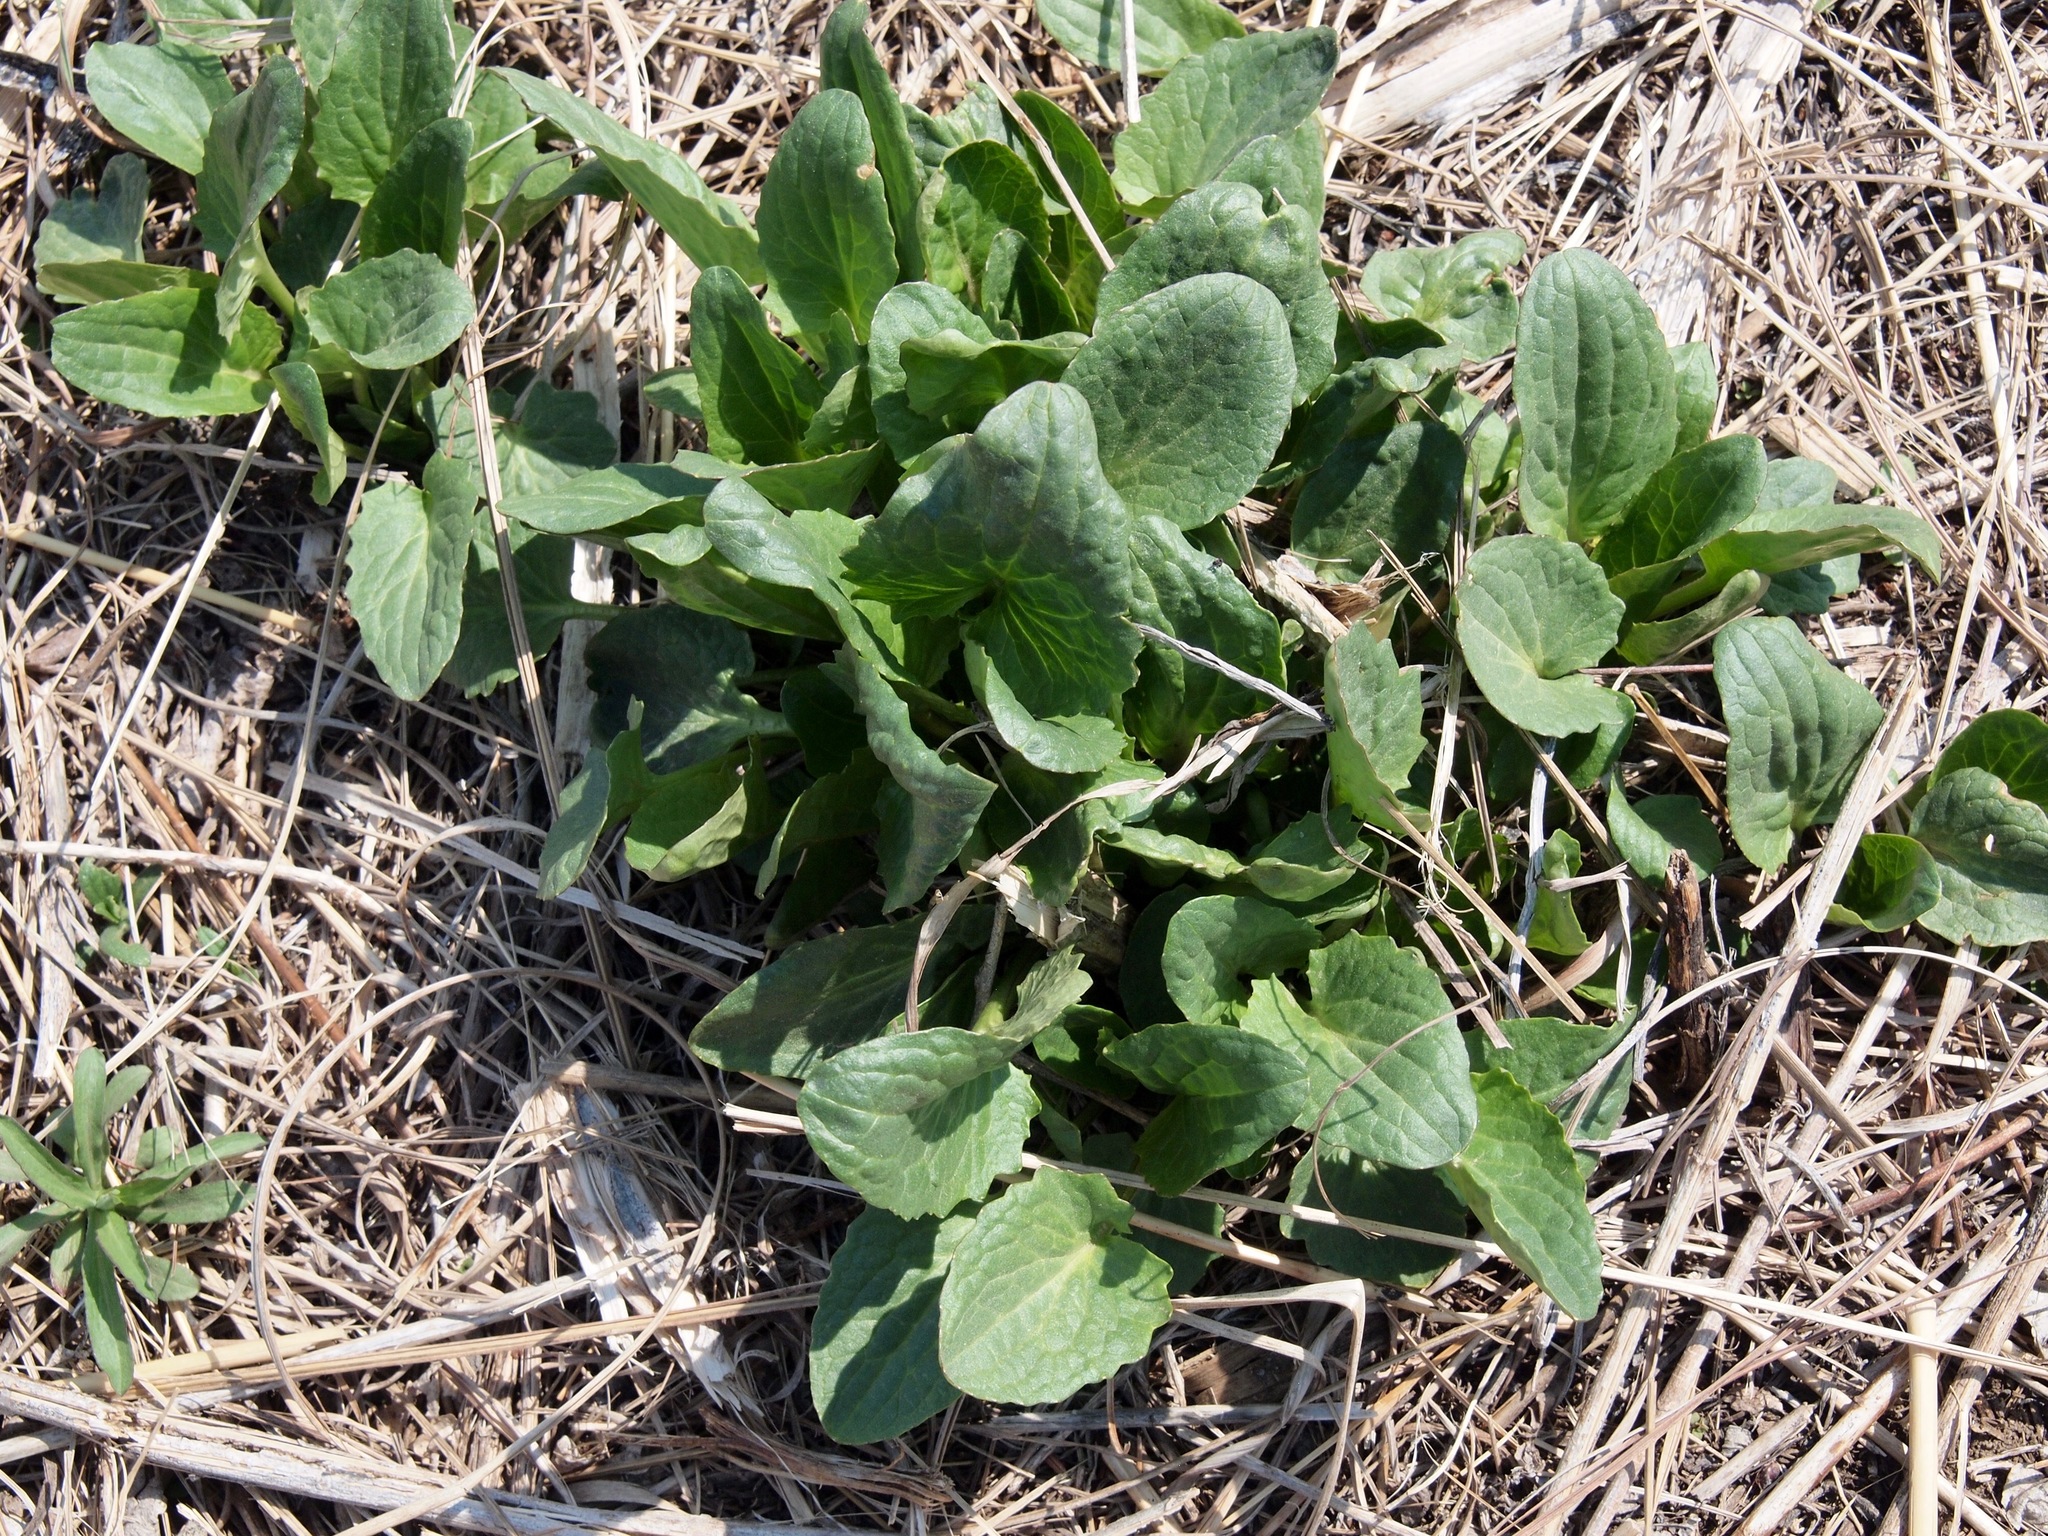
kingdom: Plantae
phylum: Tracheophyta
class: Magnoliopsida
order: Asterales
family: Asteraceae
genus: Arnoglossum
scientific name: Arnoglossum atriplicifolium
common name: Pale indian-plantain
